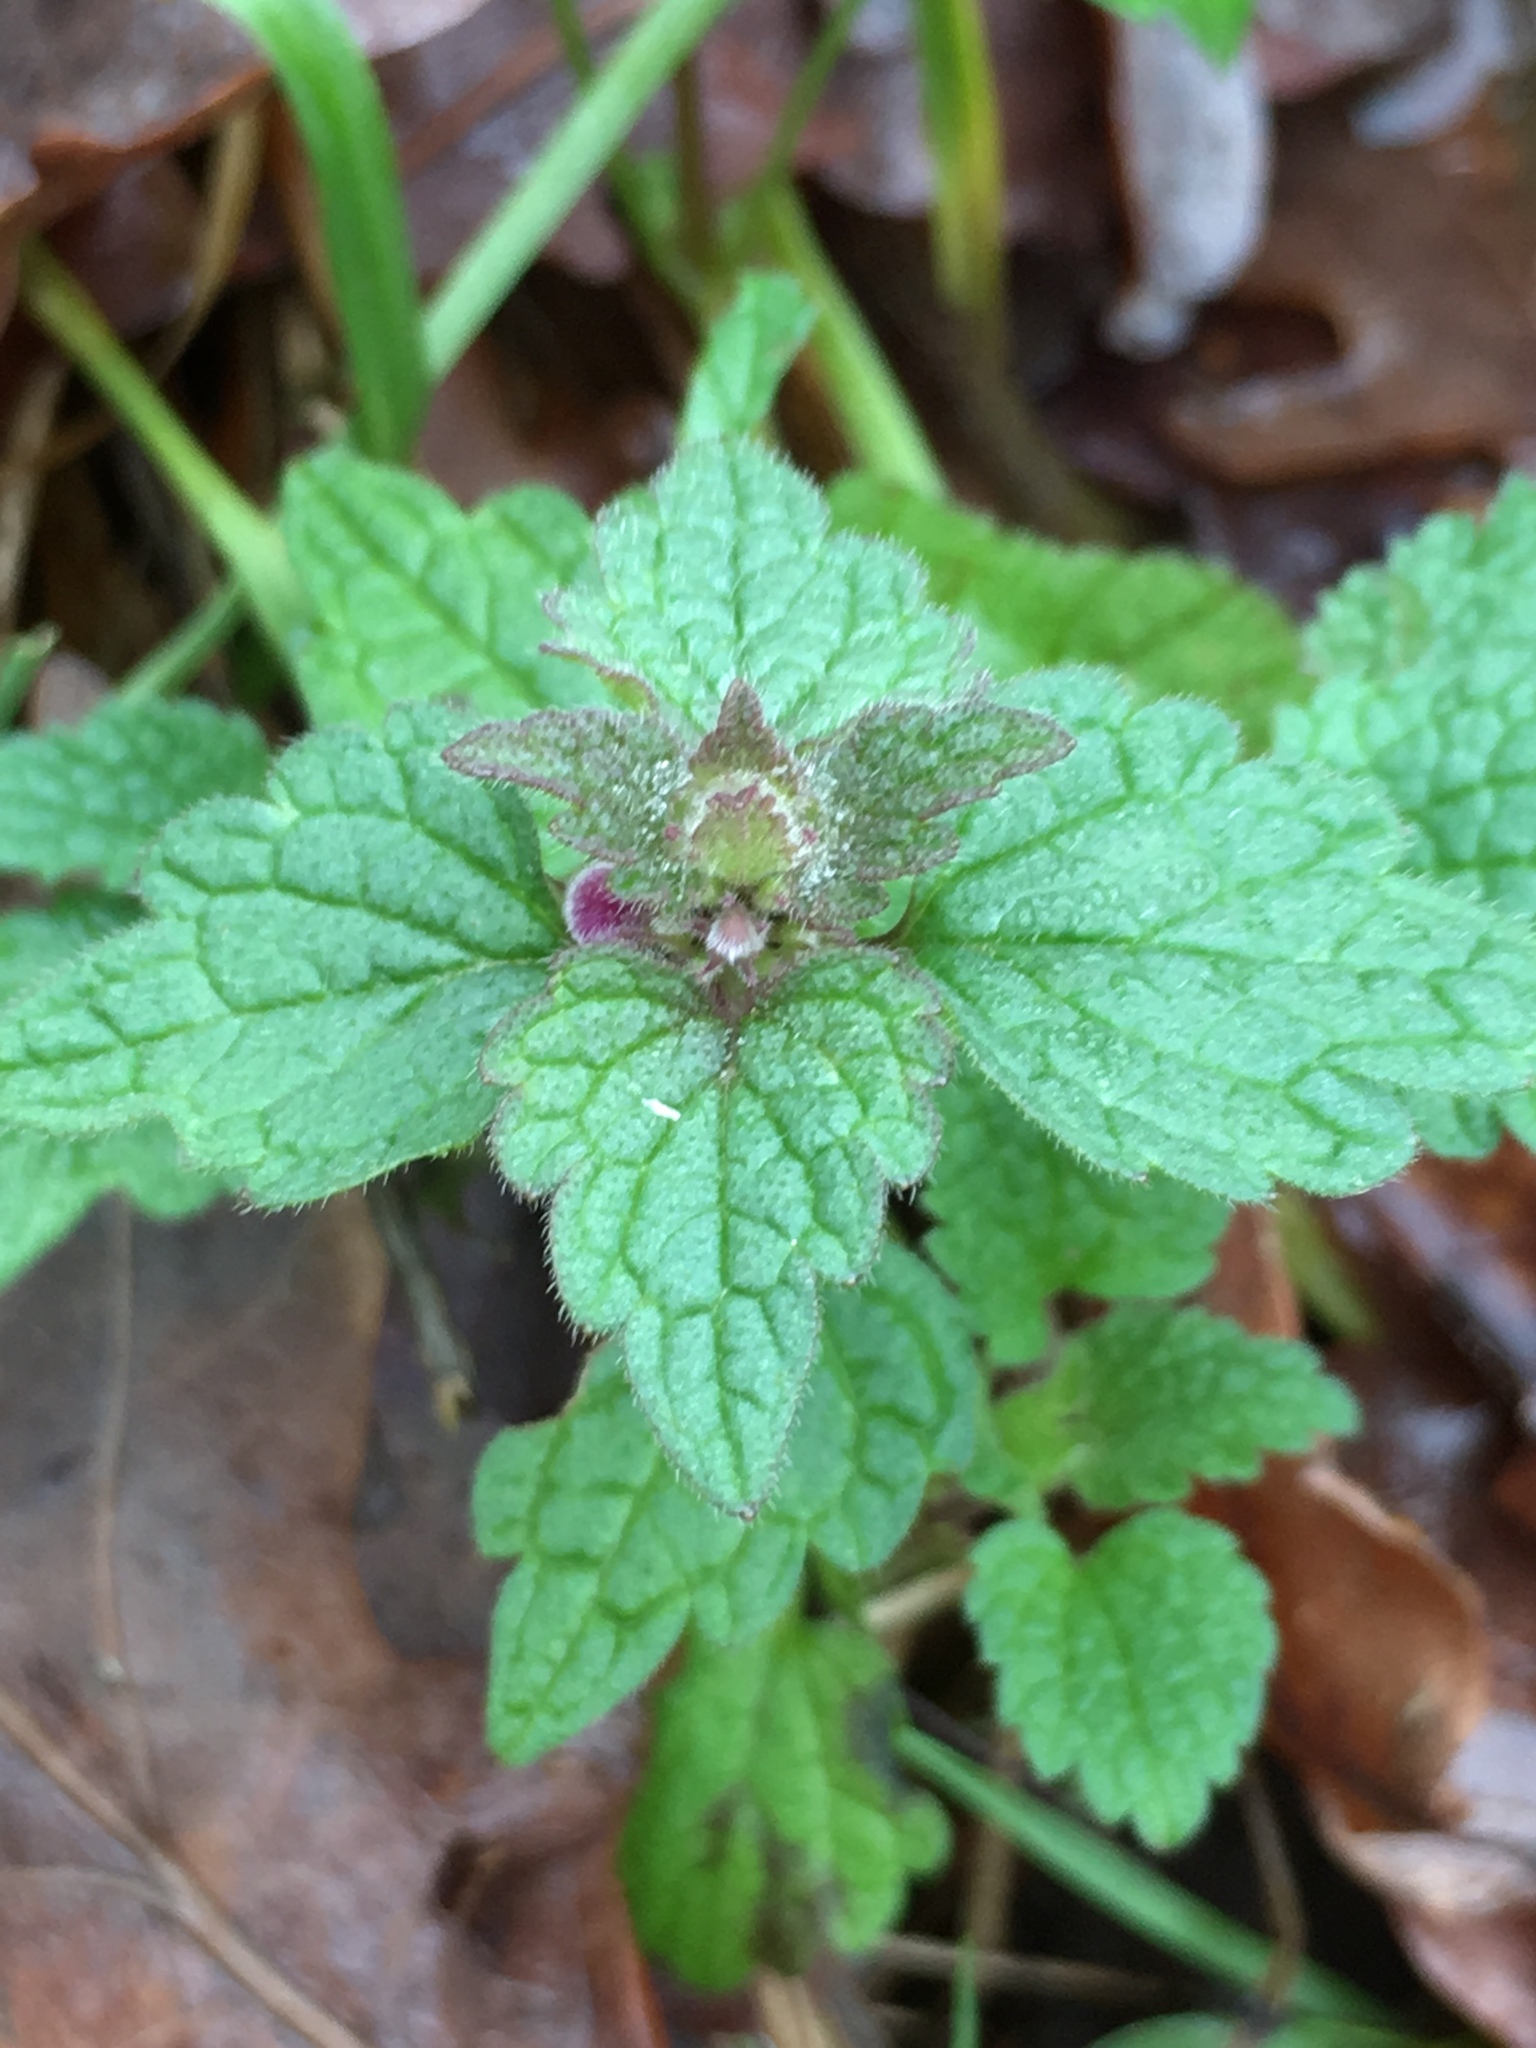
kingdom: Plantae
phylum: Tracheophyta
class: Magnoliopsida
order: Lamiales
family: Lamiaceae
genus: Lamium
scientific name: Lamium purpureum
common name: Red dead-nettle
